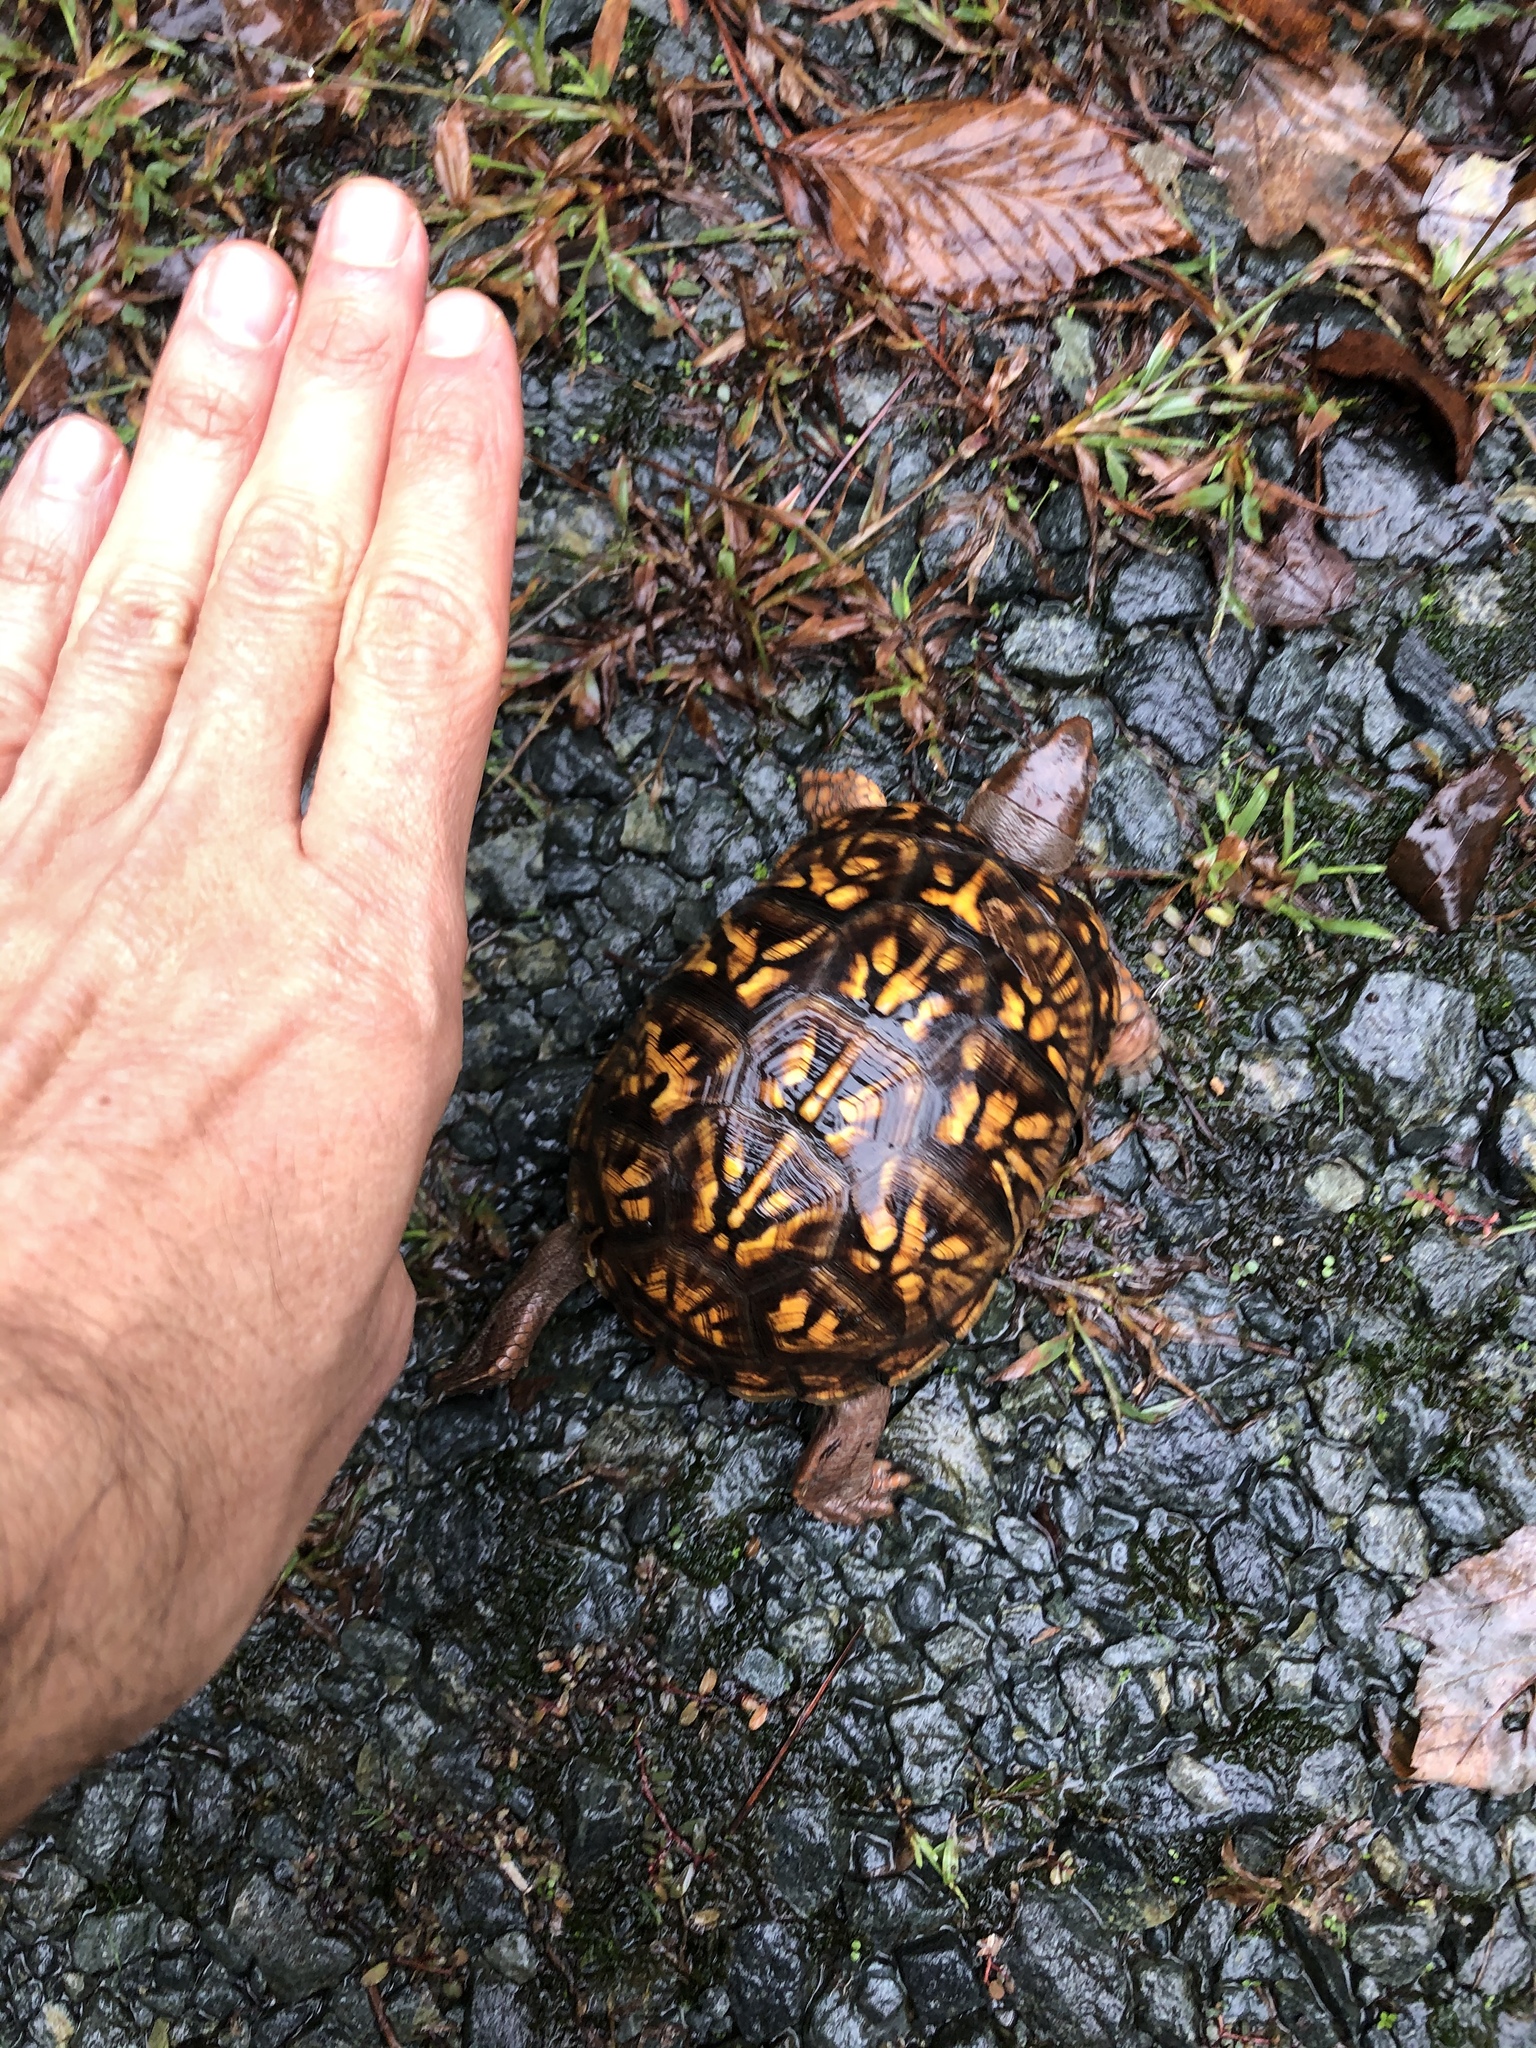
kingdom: Animalia
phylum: Chordata
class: Testudines
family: Emydidae
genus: Terrapene
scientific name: Terrapene carolina
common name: Common box turtle
